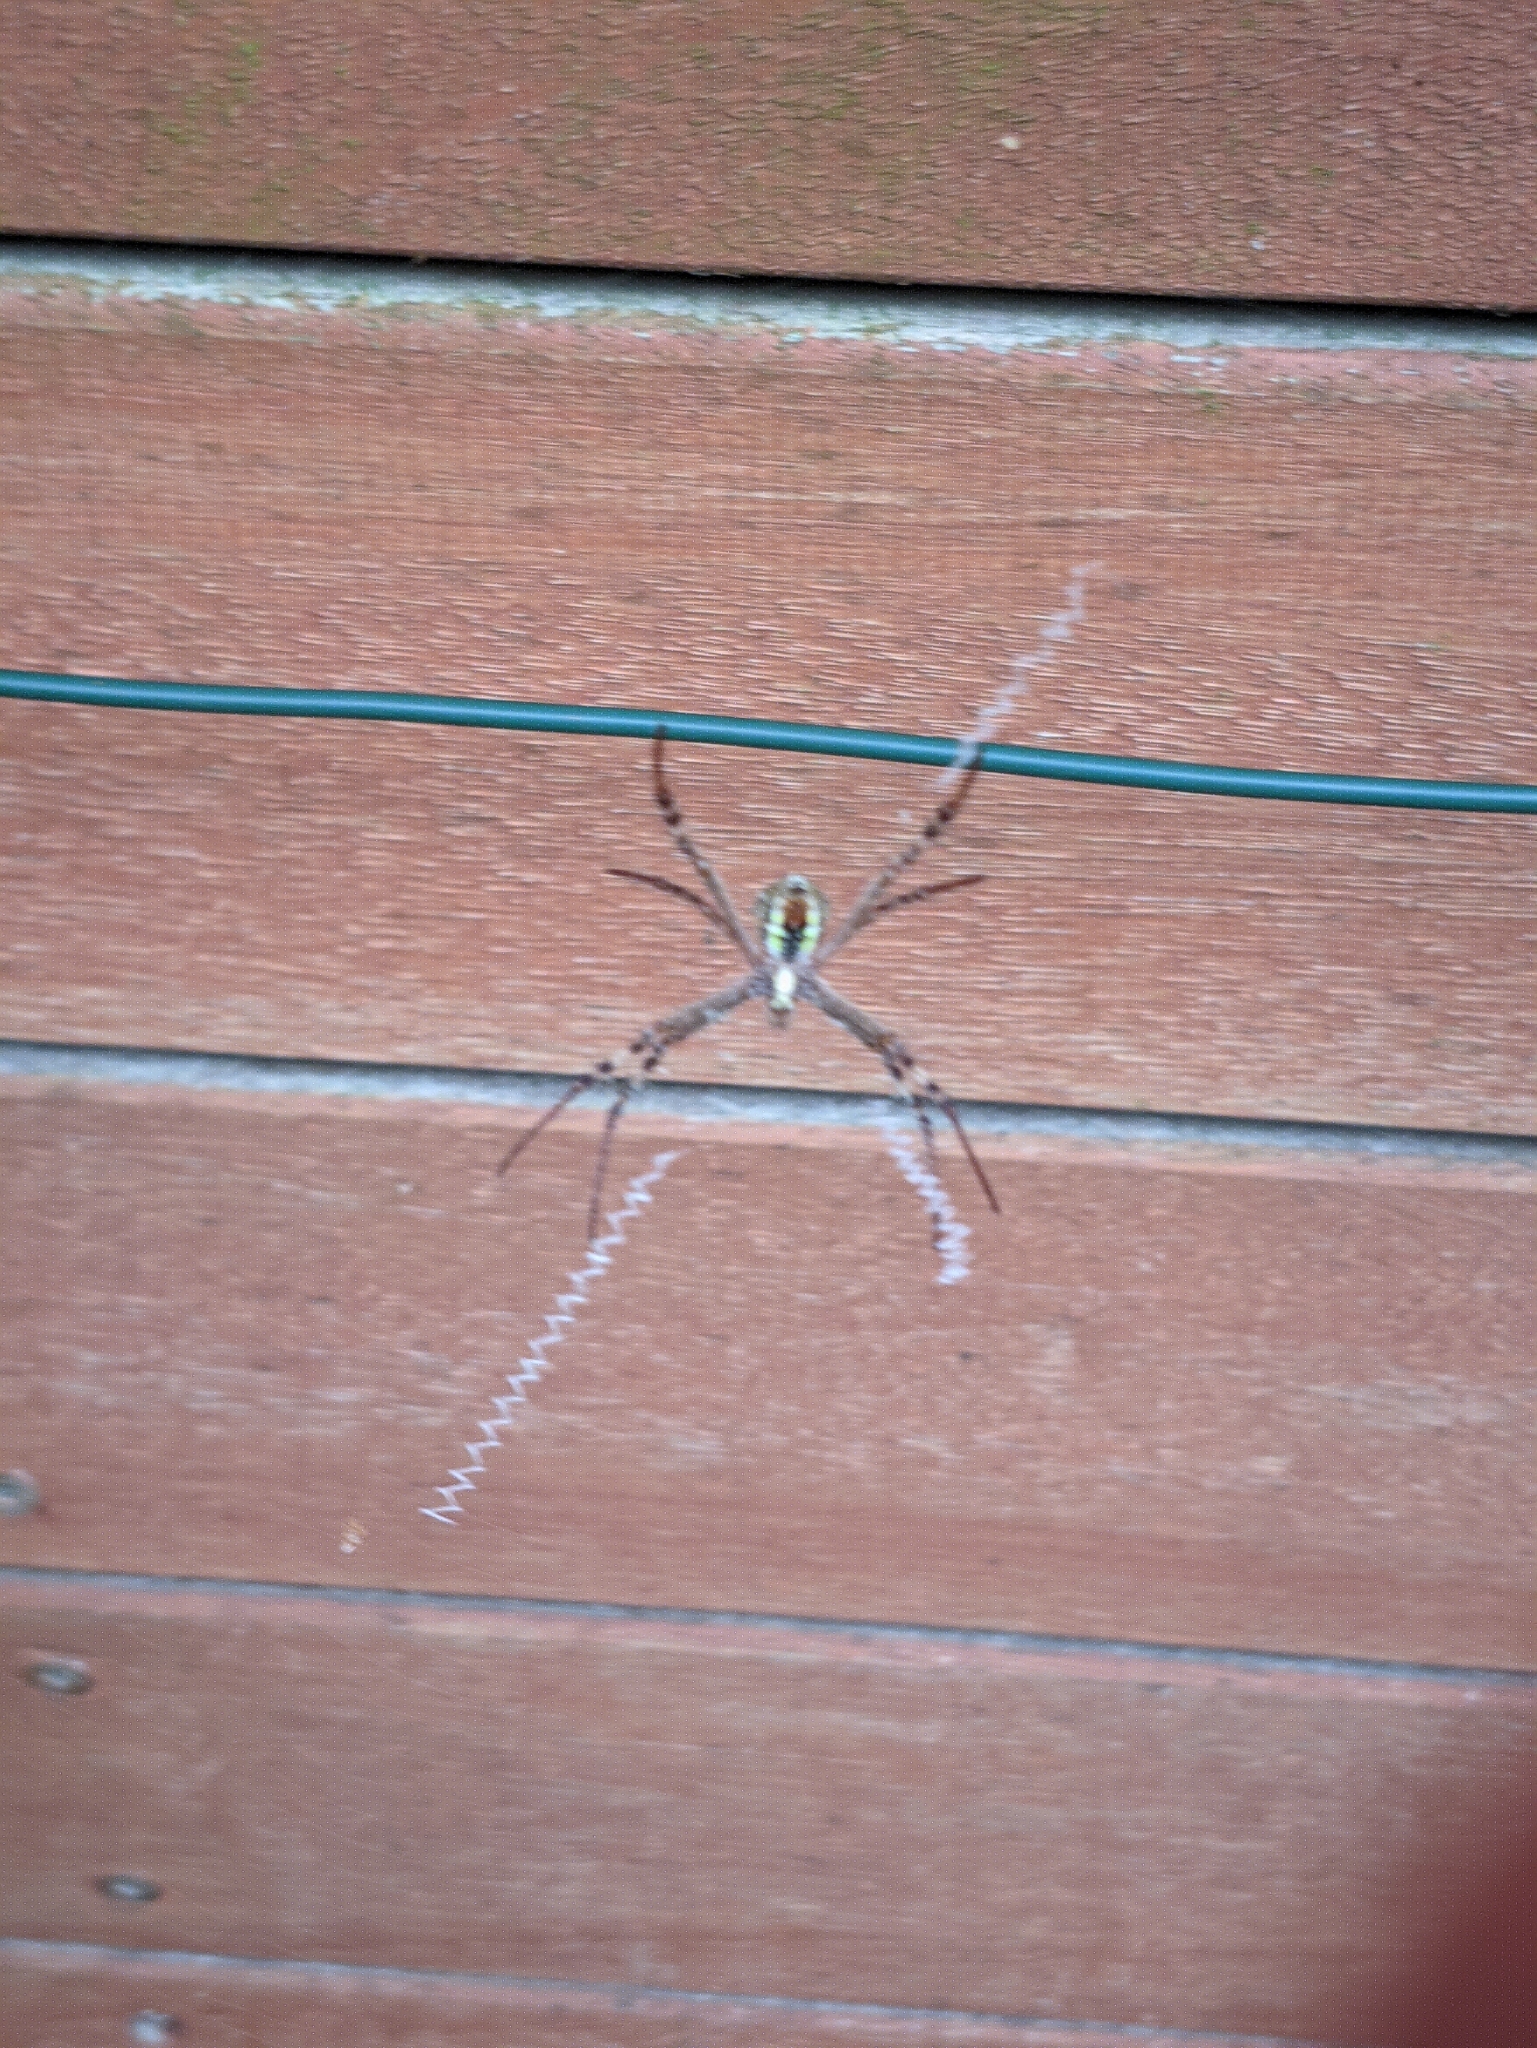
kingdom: Animalia
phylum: Arthropoda
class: Arachnida
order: Araneae
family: Araneidae
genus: Argiope
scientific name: Argiope keyserlingi
